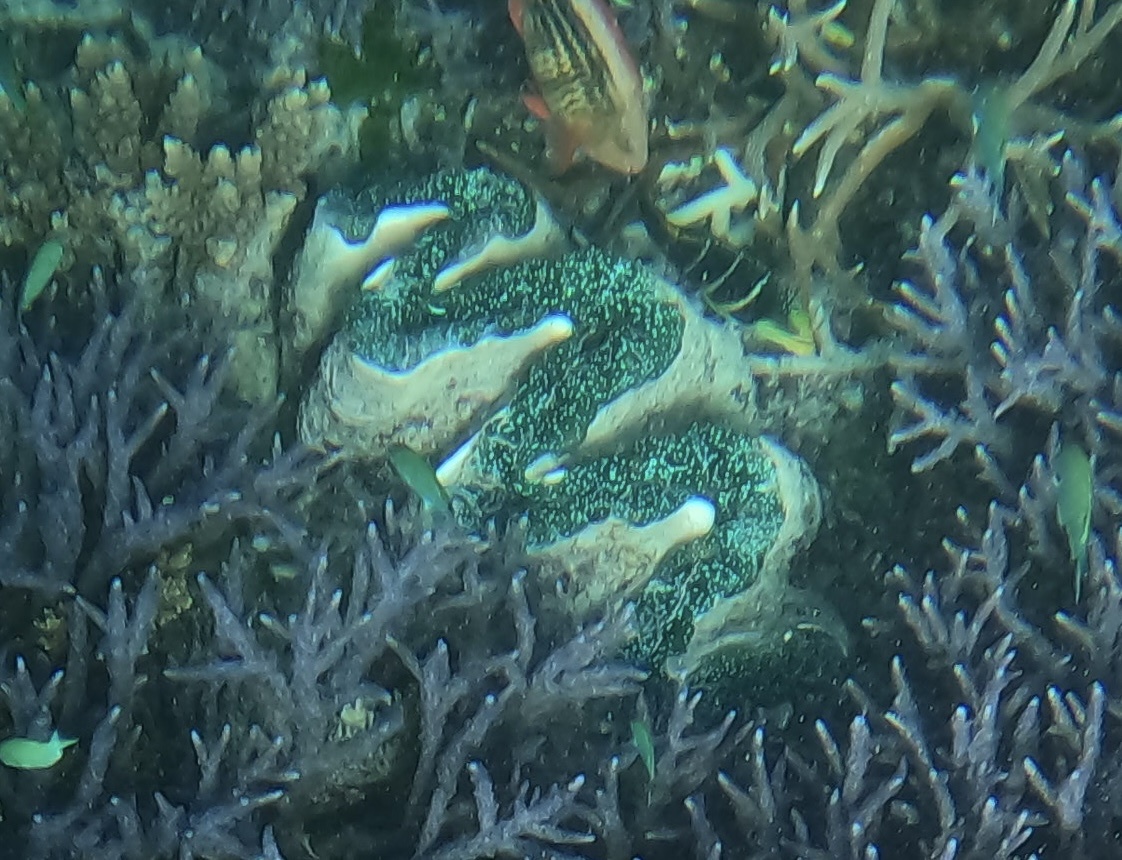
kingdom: Animalia
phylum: Mollusca
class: Bivalvia
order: Cardiida
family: Cardiidae
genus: Tridacna
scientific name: Tridacna gigas
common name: Giant clam
